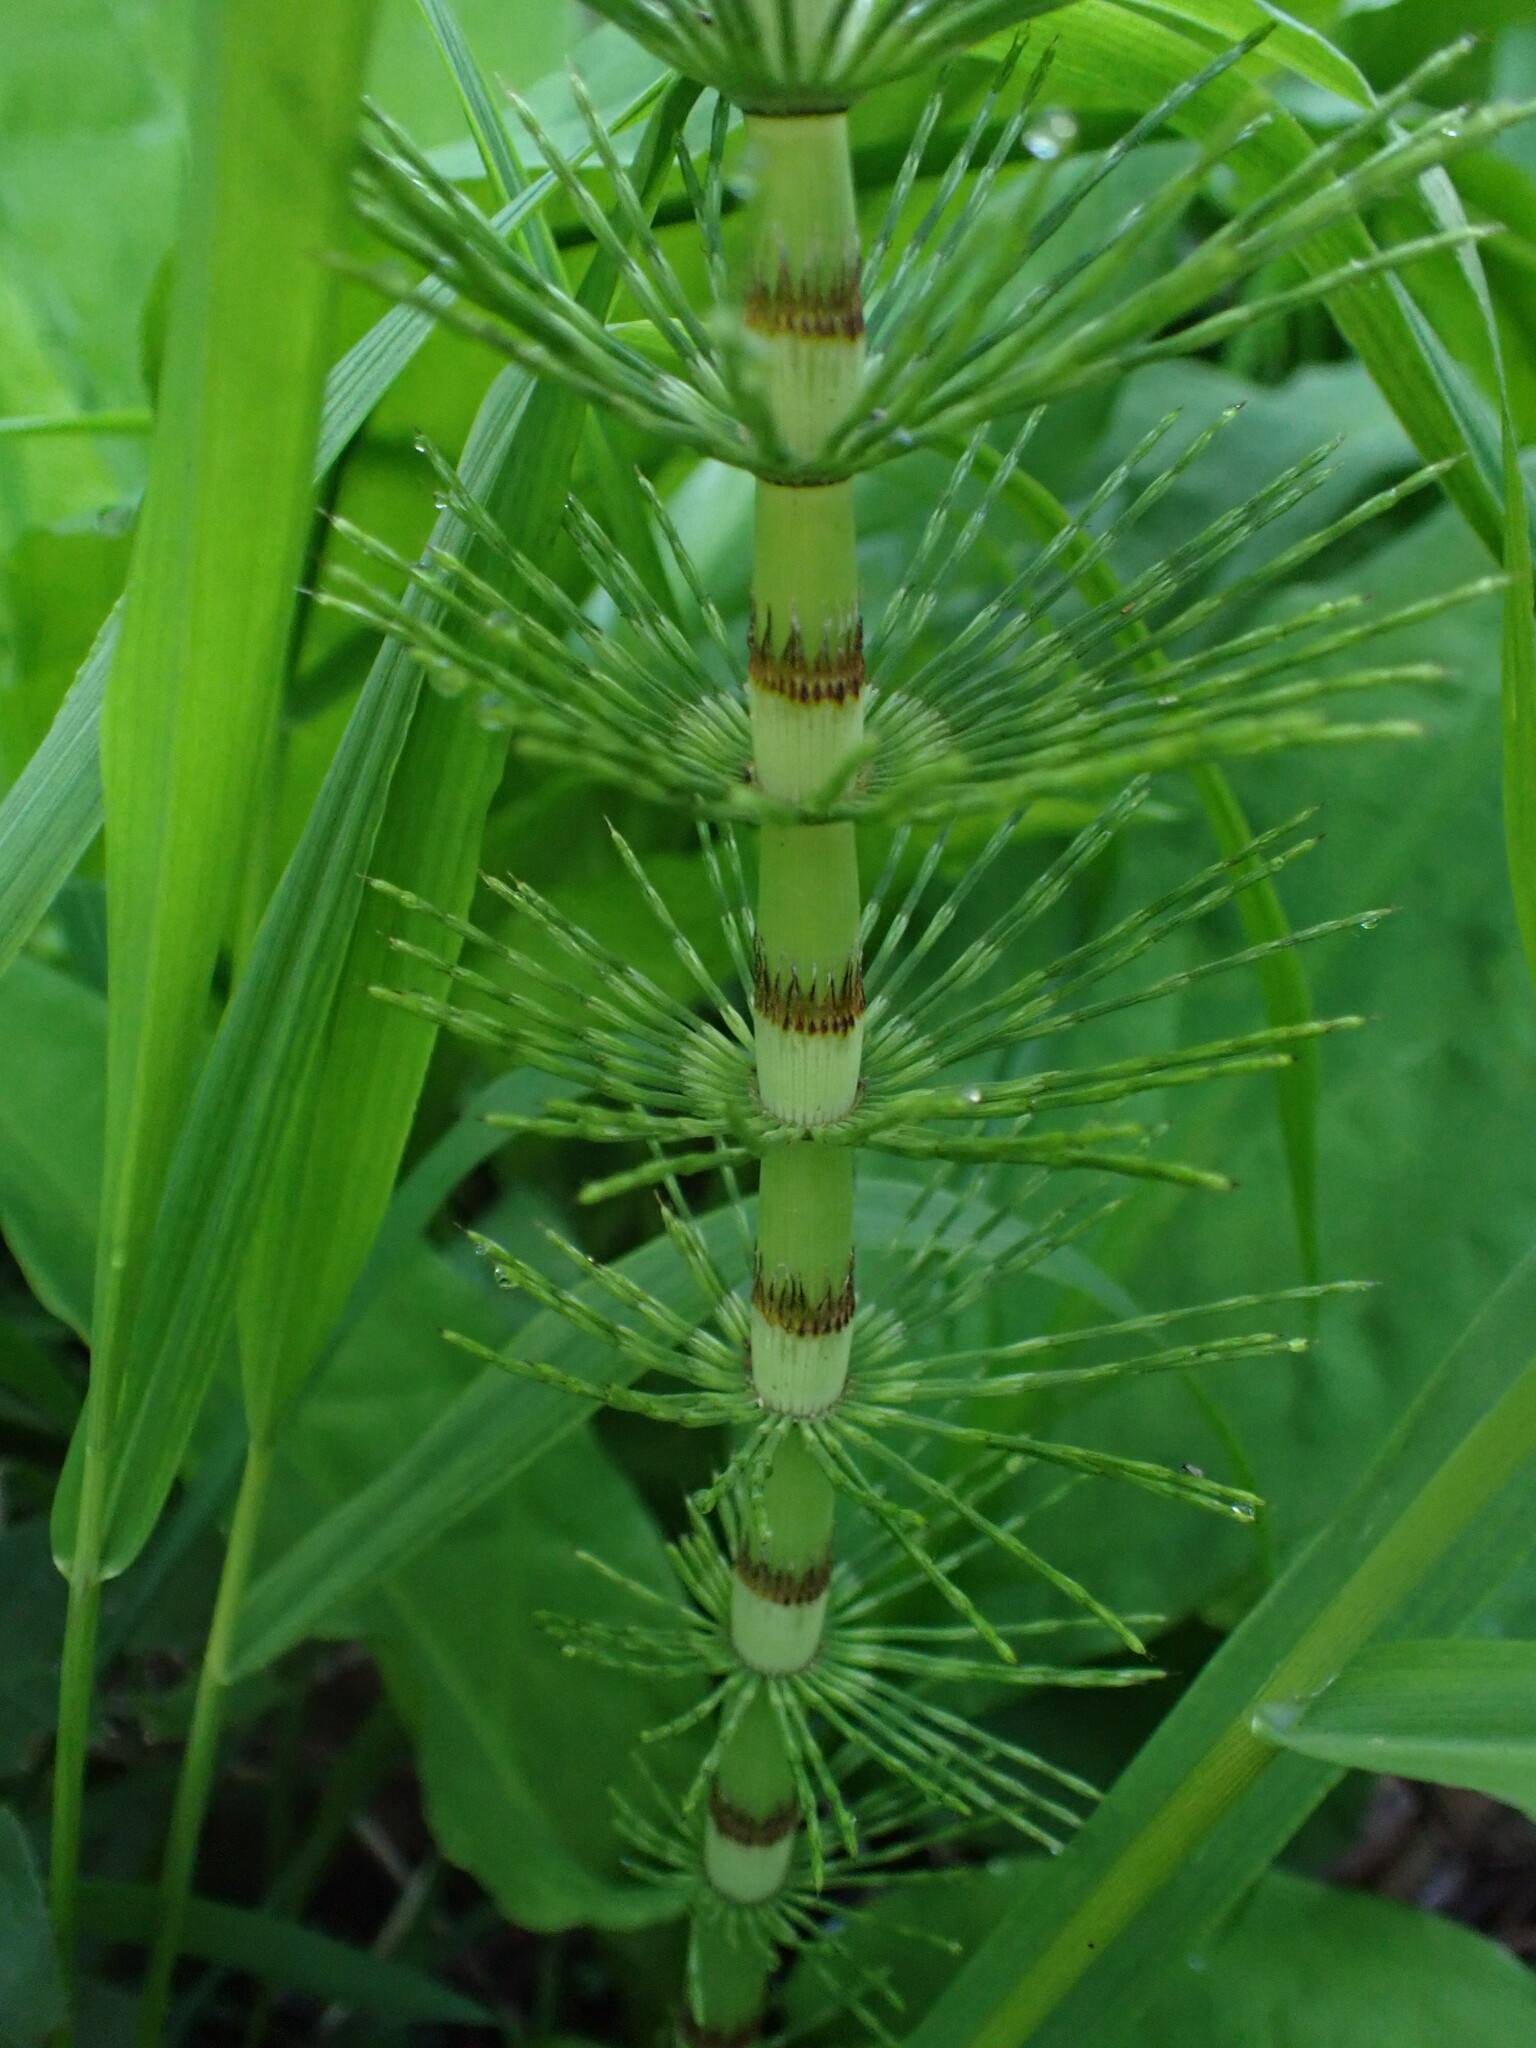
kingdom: Plantae
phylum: Tracheophyta
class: Polypodiopsida
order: Equisetales
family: Equisetaceae
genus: Equisetum
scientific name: Equisetum braunii
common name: Braun's horsetail
